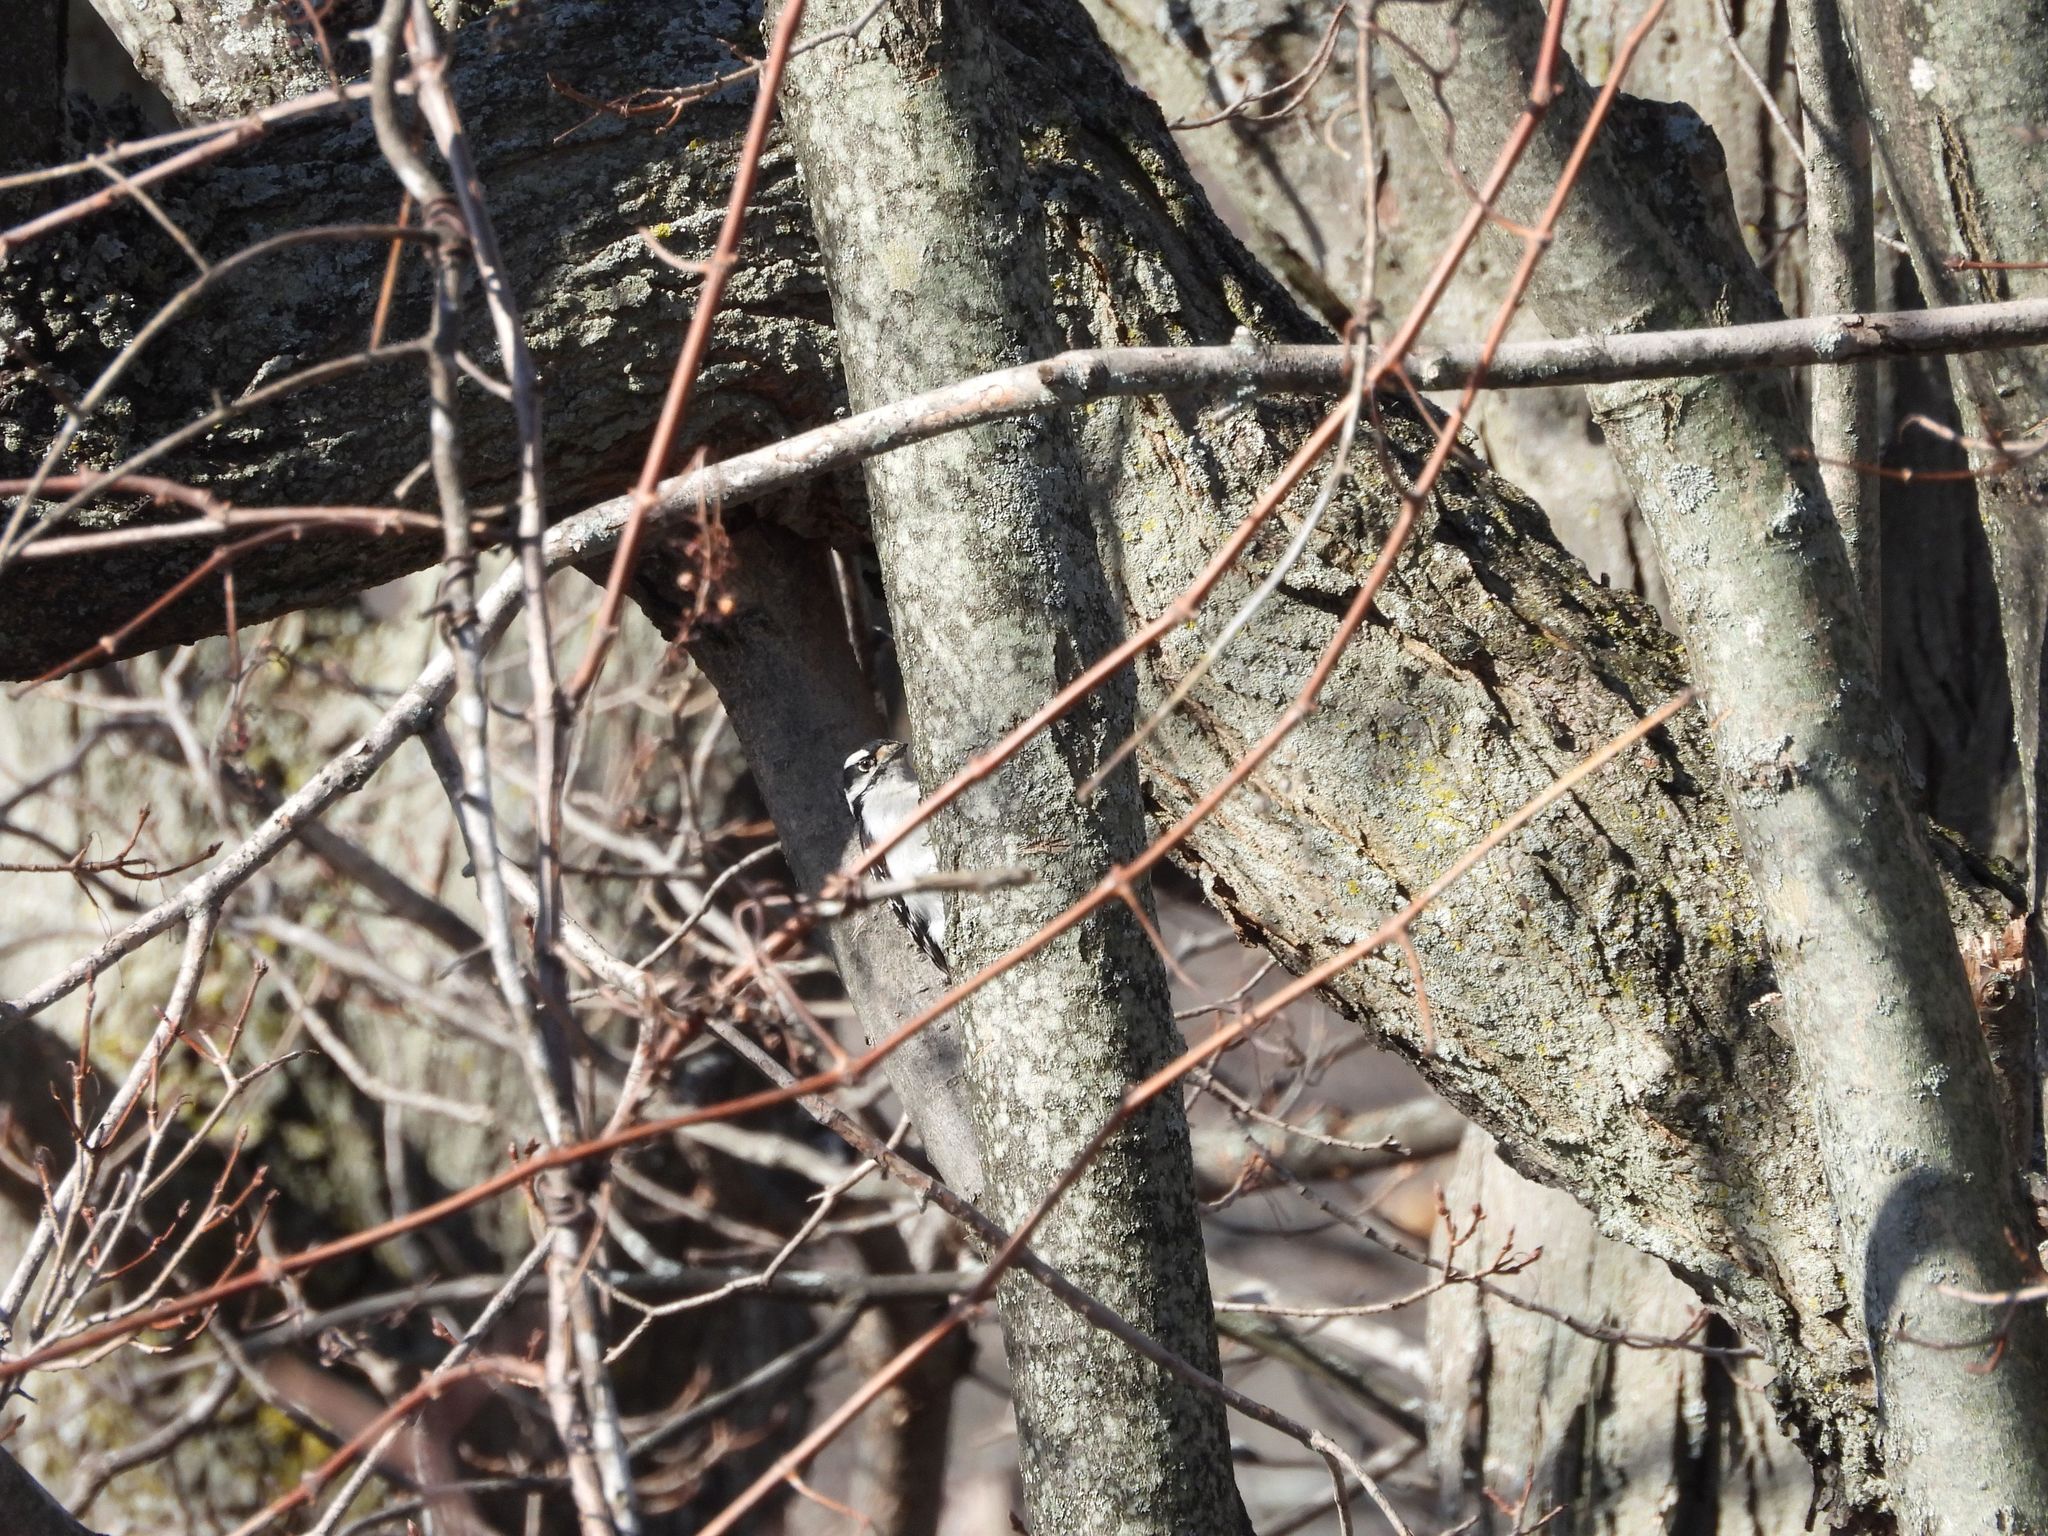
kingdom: Animalia
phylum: Chordata
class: Aves
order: Piciformes
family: Picidae
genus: Dryobates
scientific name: Dryobates pubescens
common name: Downy woodpecker
